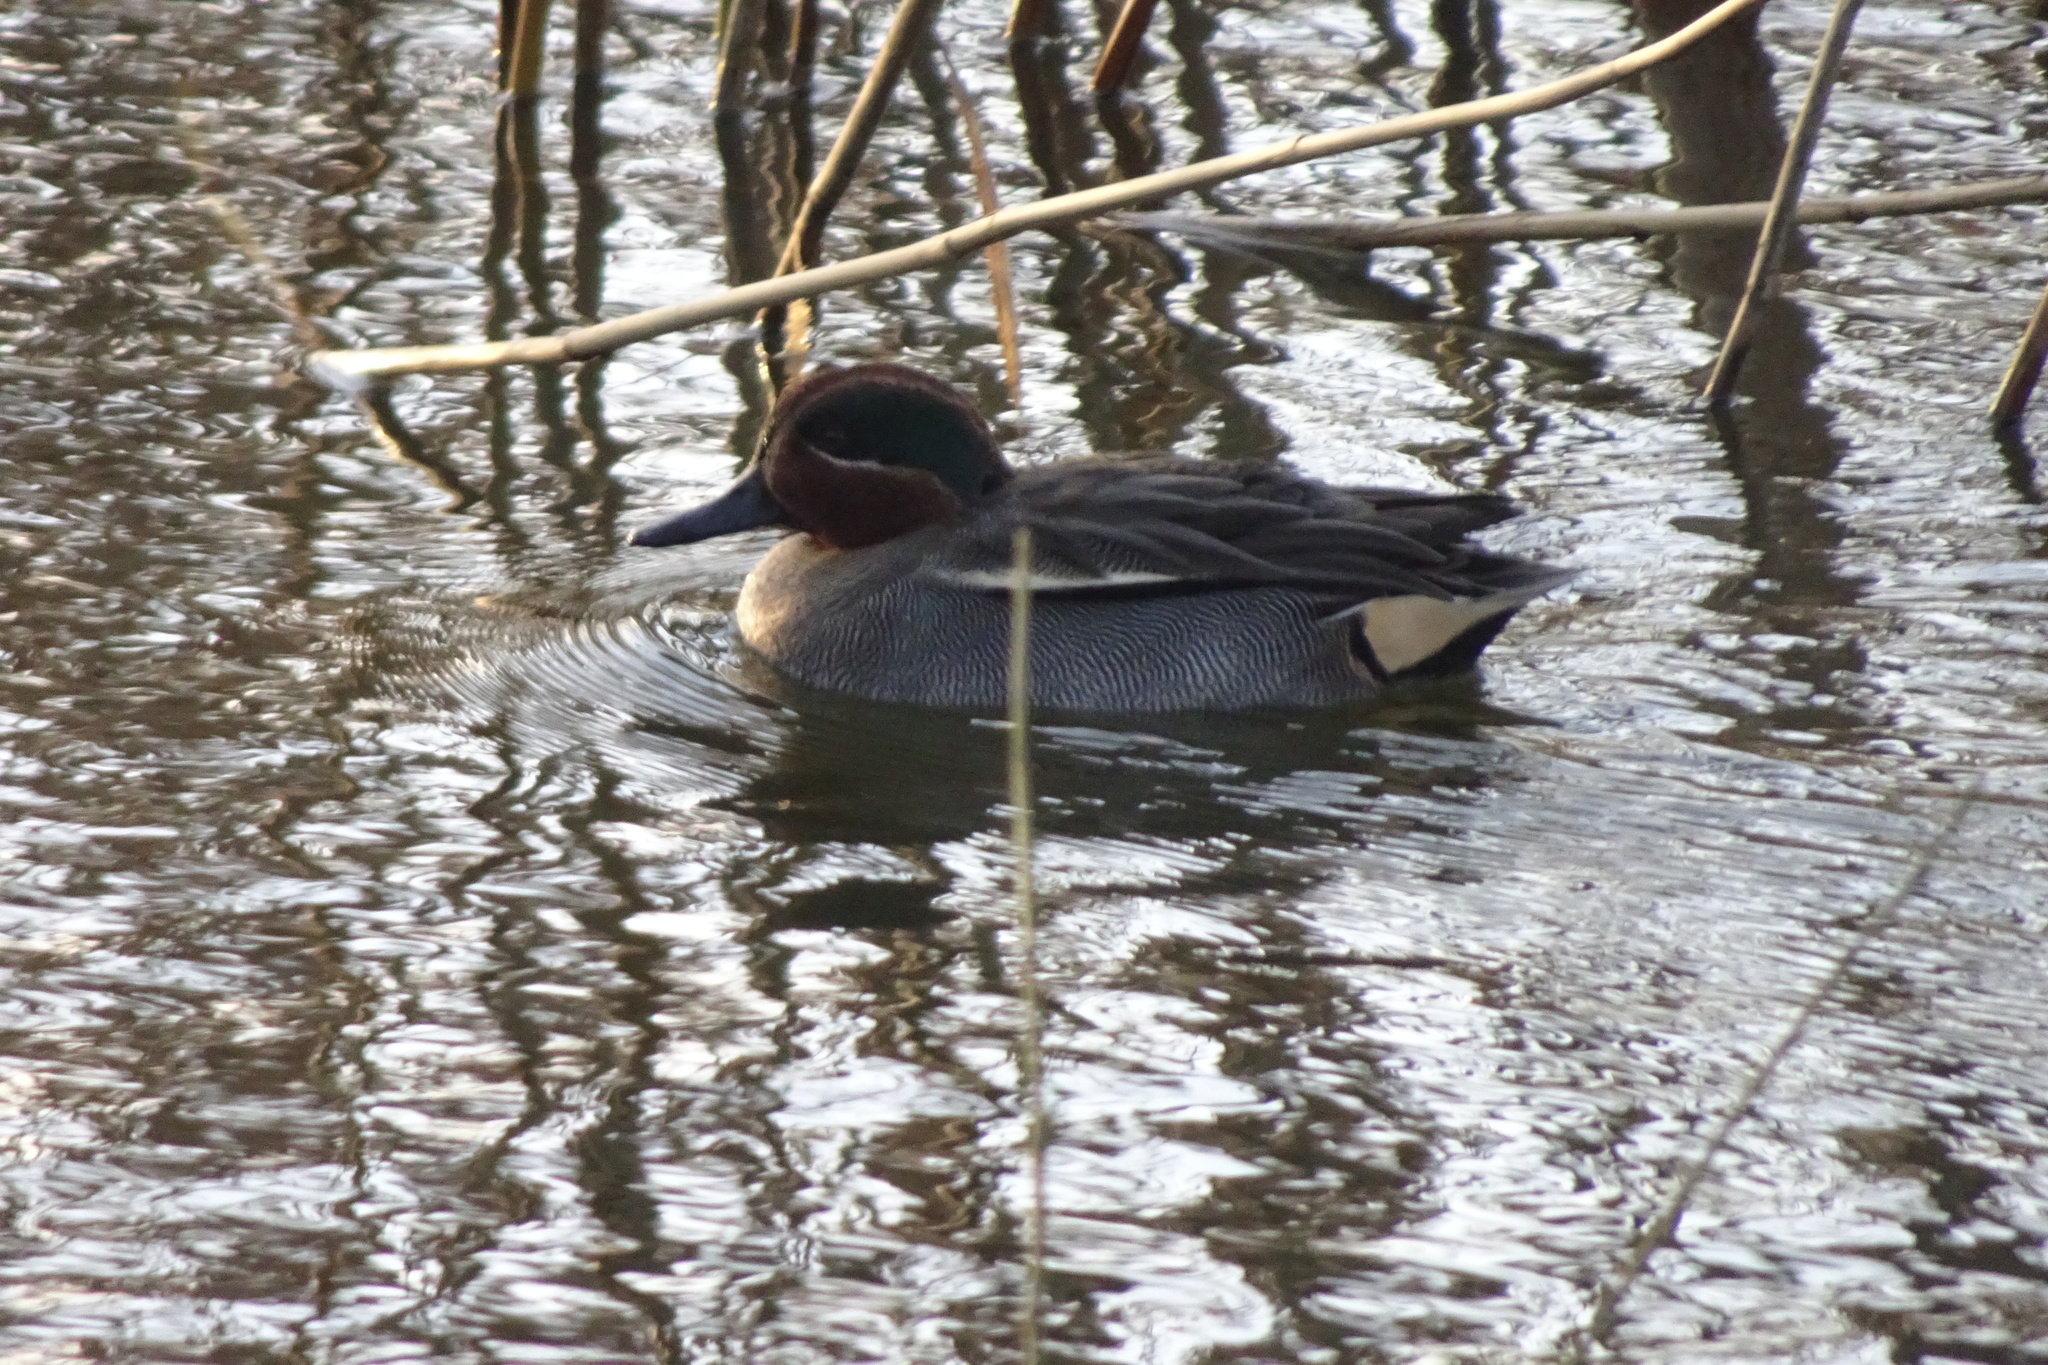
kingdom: Animalia
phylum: Chordata
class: Aves
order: Anseriformes
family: Anatidae
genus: Anas
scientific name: Anas crecca
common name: Eurasian teal
